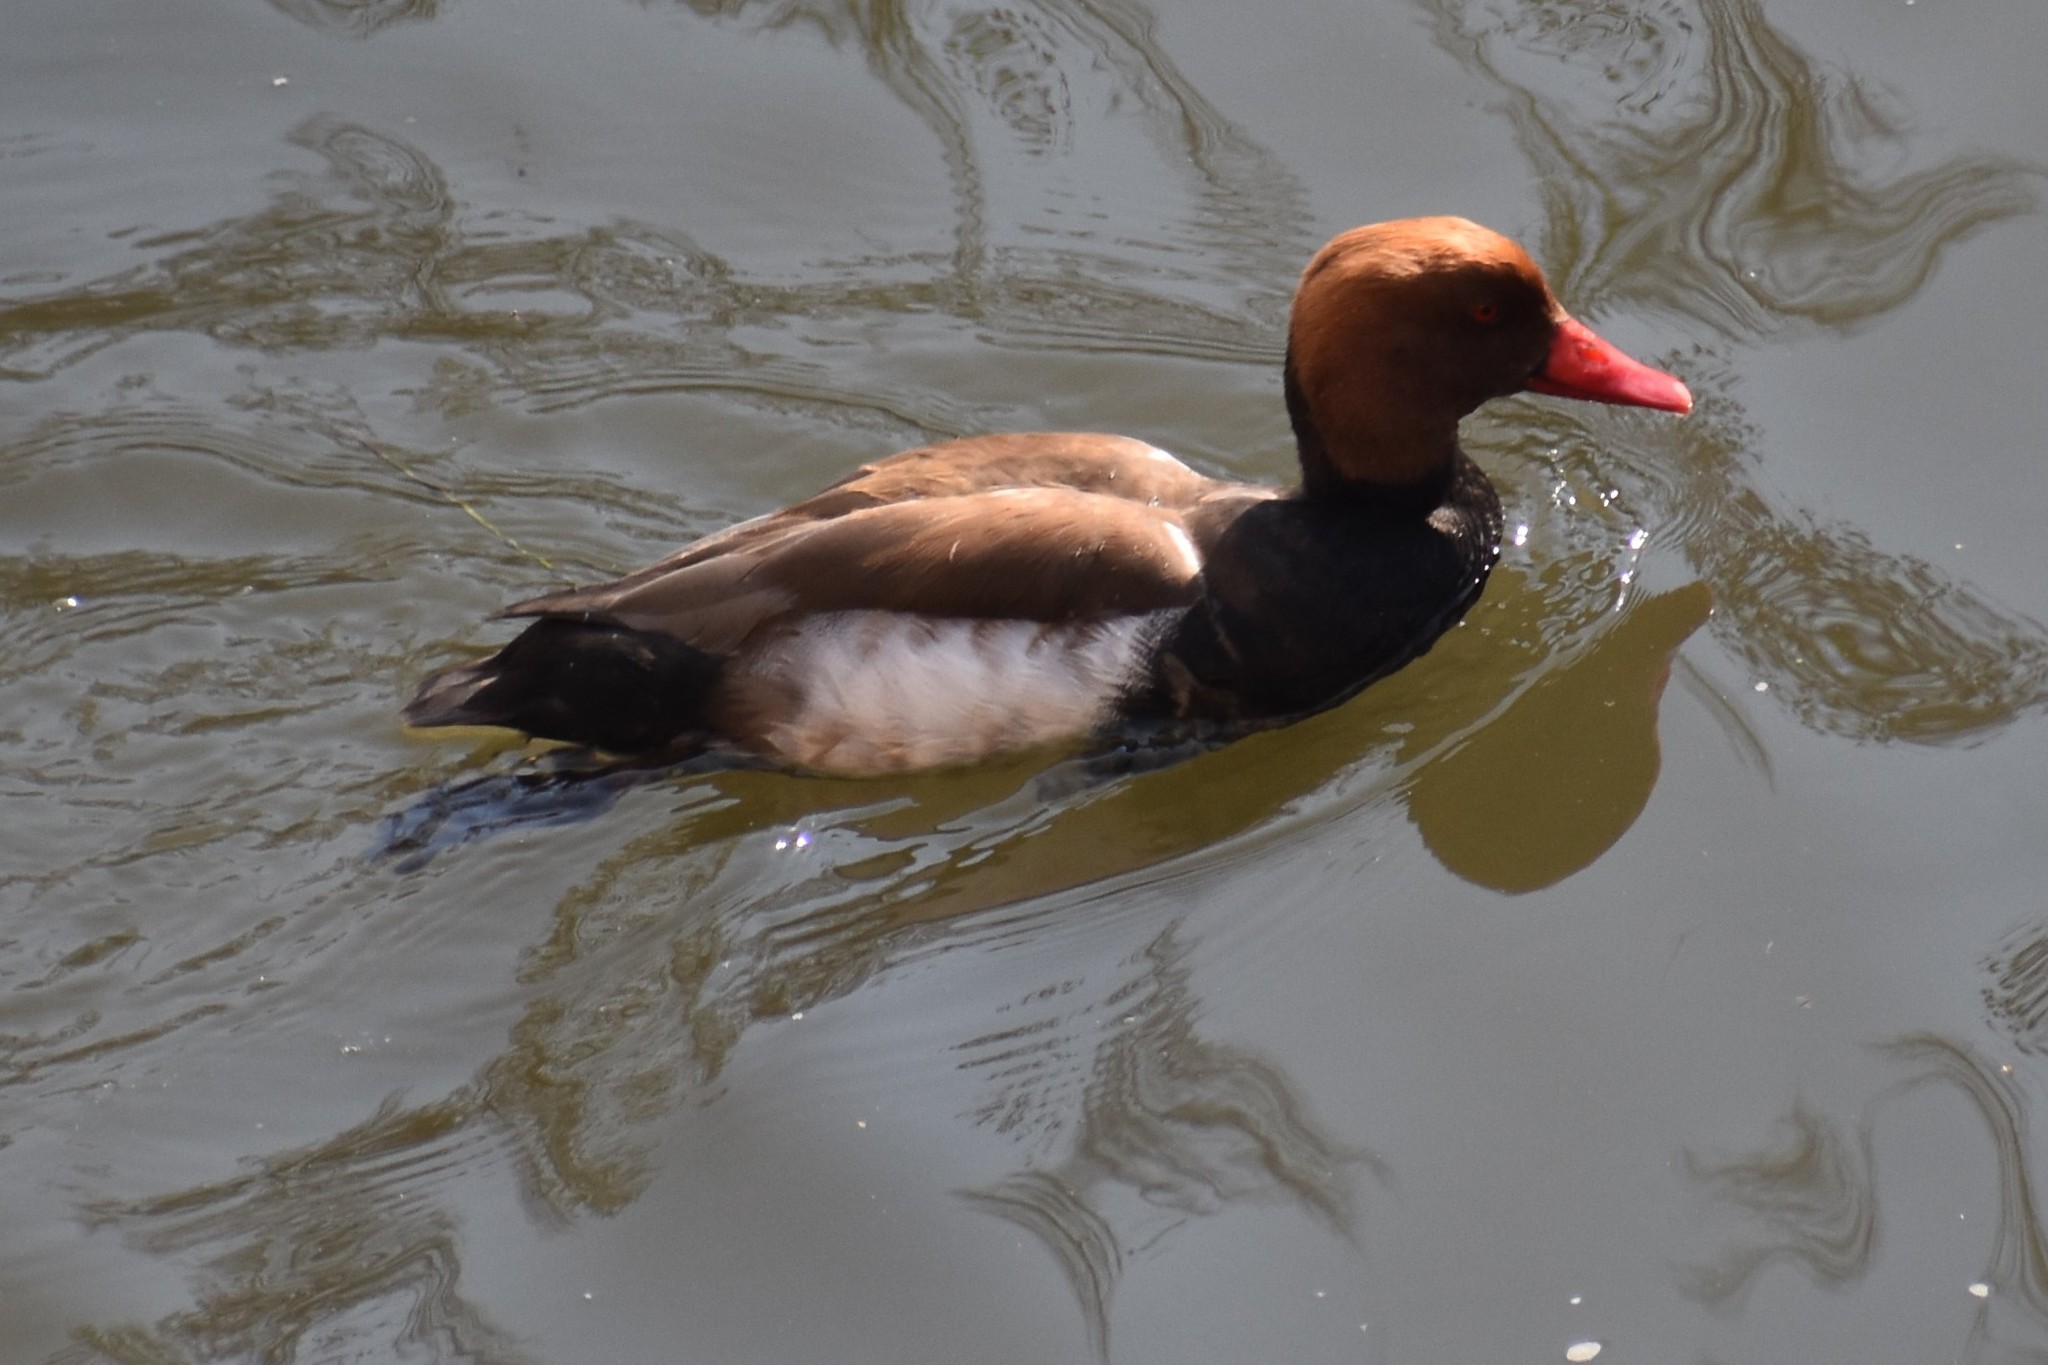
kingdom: Animalia
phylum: Chordata
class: Aves
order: Anseriformes
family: Anatidae
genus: Netta
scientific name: Netta rufina
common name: Red-crested pochard
